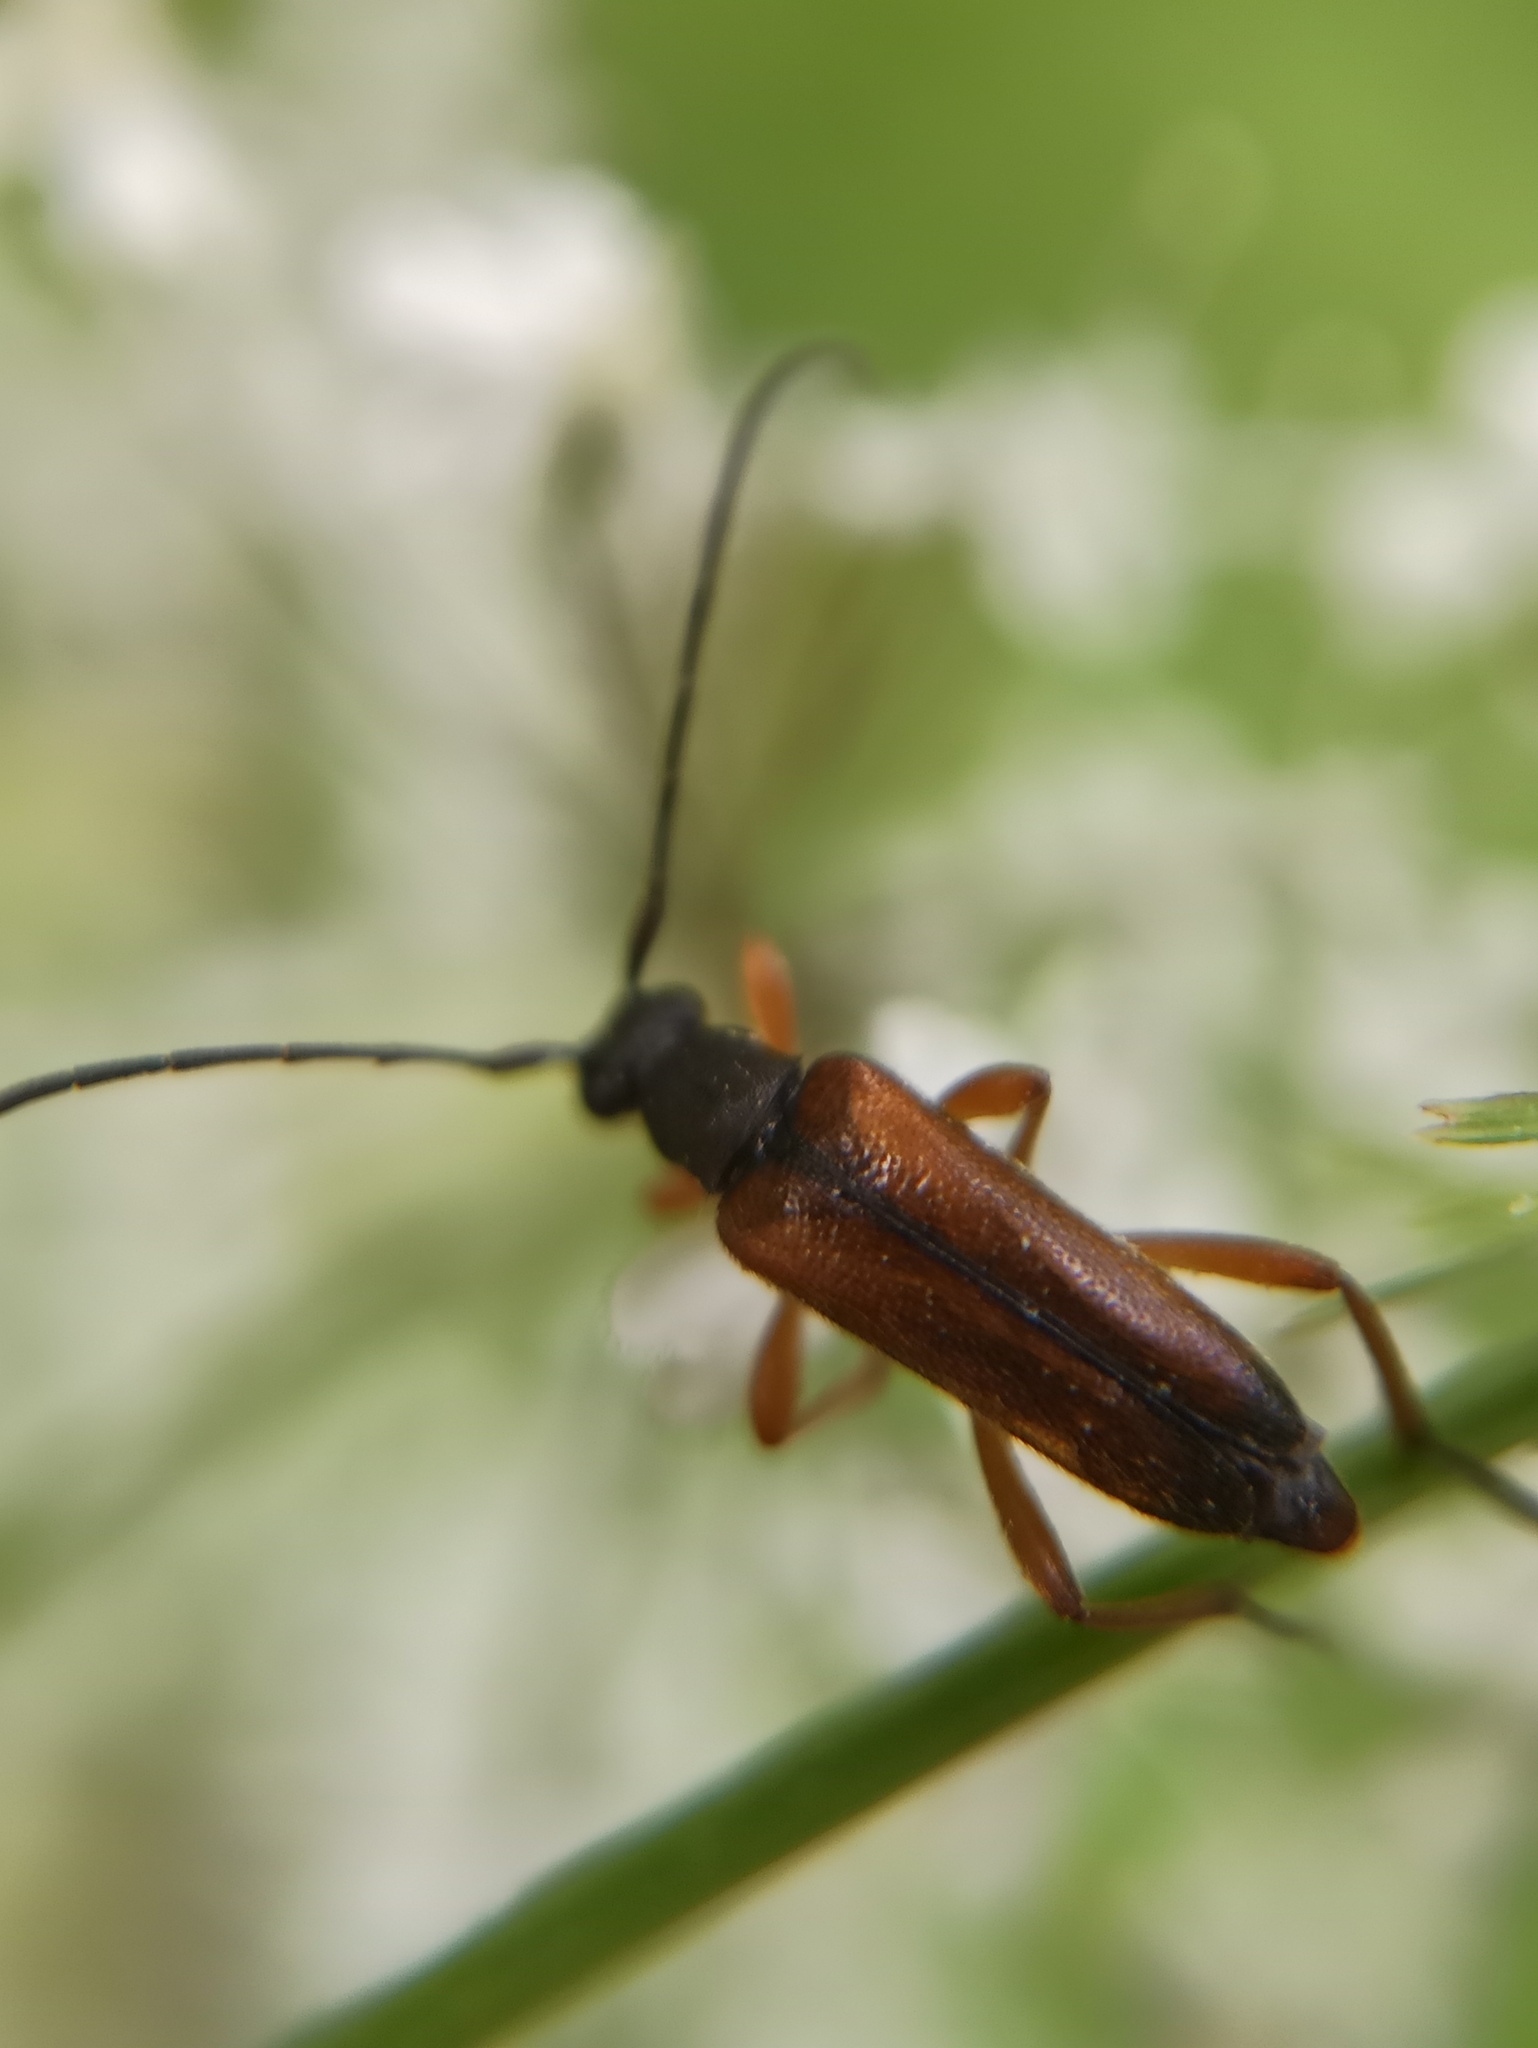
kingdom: Animalia
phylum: Arthropoda
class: Insecta
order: Coleoptera
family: Cerambycidae
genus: Alosterna
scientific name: Alosterna tabacicolor
